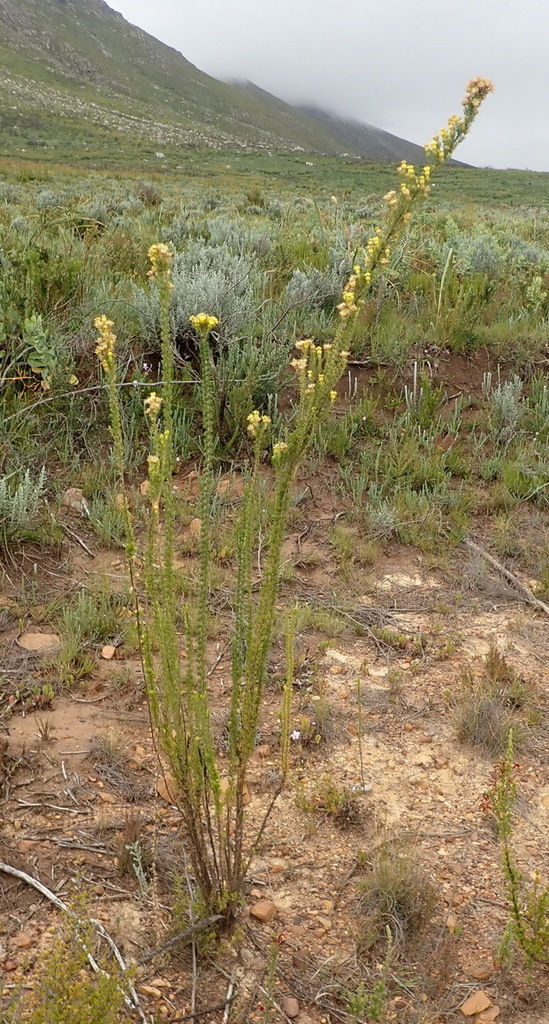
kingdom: Plantae
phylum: Tracheophyta
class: Magnoliopsida
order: Asterales
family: Asteraceae
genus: Pteronia
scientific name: Pteronia camphorata
